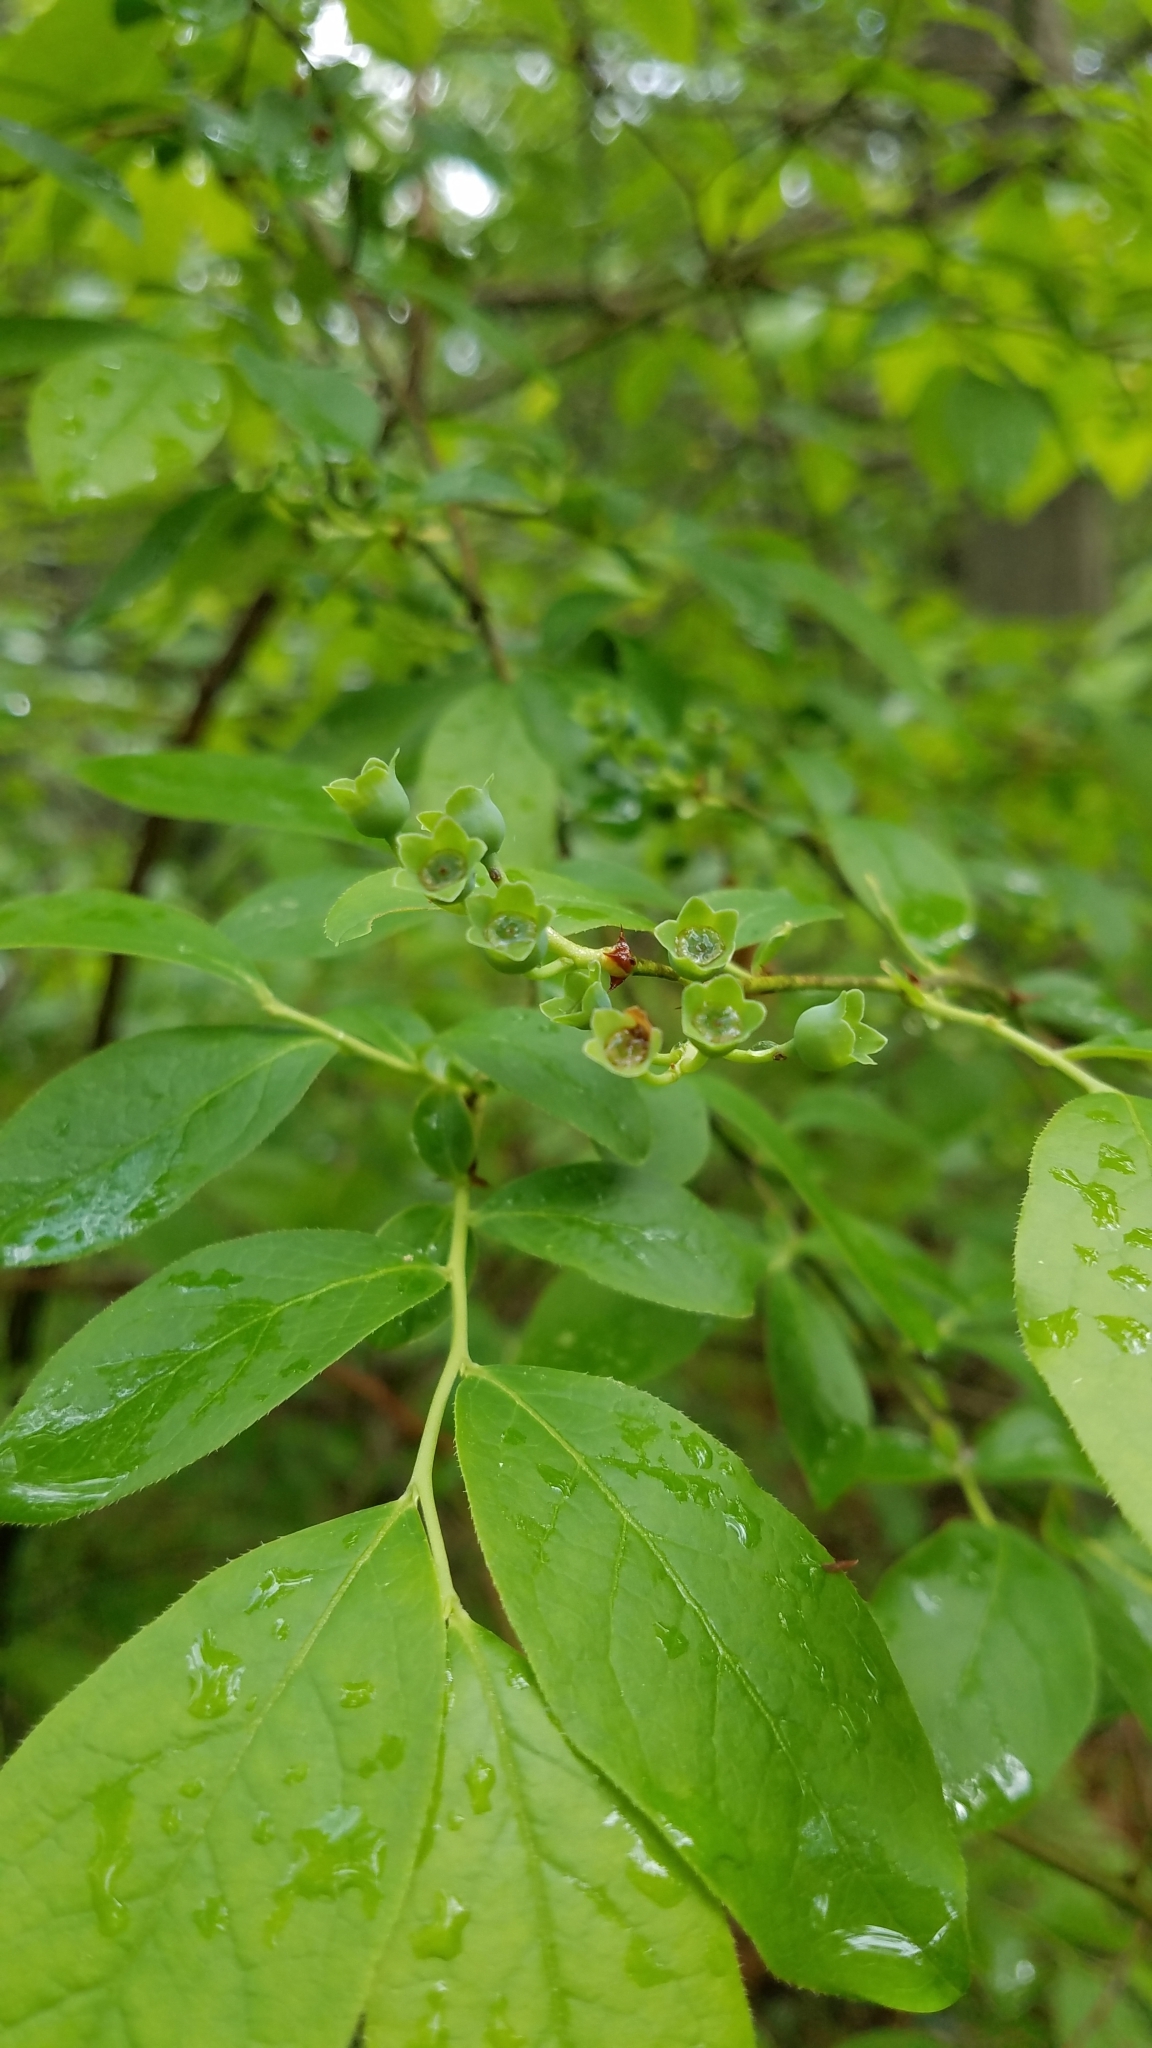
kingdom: Plantae
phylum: Tracheophyta
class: Magnoliopsida
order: Ericales
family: Ericaceae
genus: Vaccinium
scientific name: Vaccinium corymbosum
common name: Blueberry
